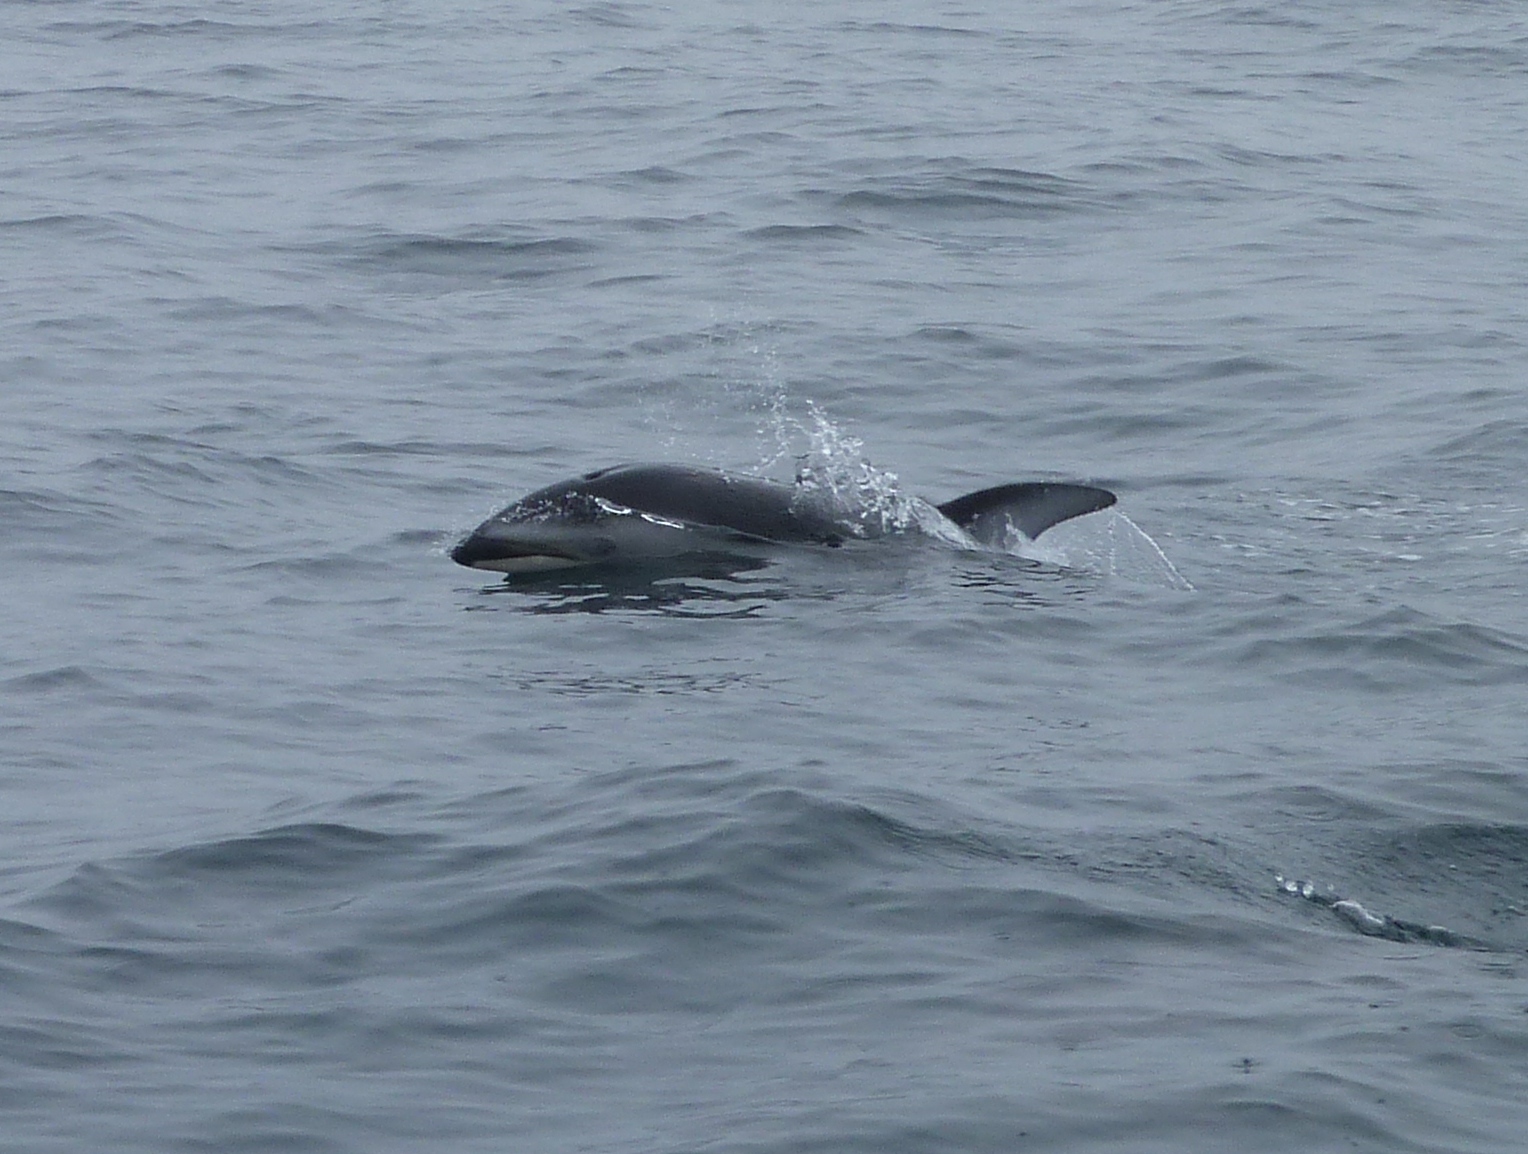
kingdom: Animalia
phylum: Chordata
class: Mammalia
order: Cetacea
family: Delphinidae
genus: Lagenorhynchus
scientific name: Lagenorhynchus obliquidens
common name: Pacific white-sided dolphin
